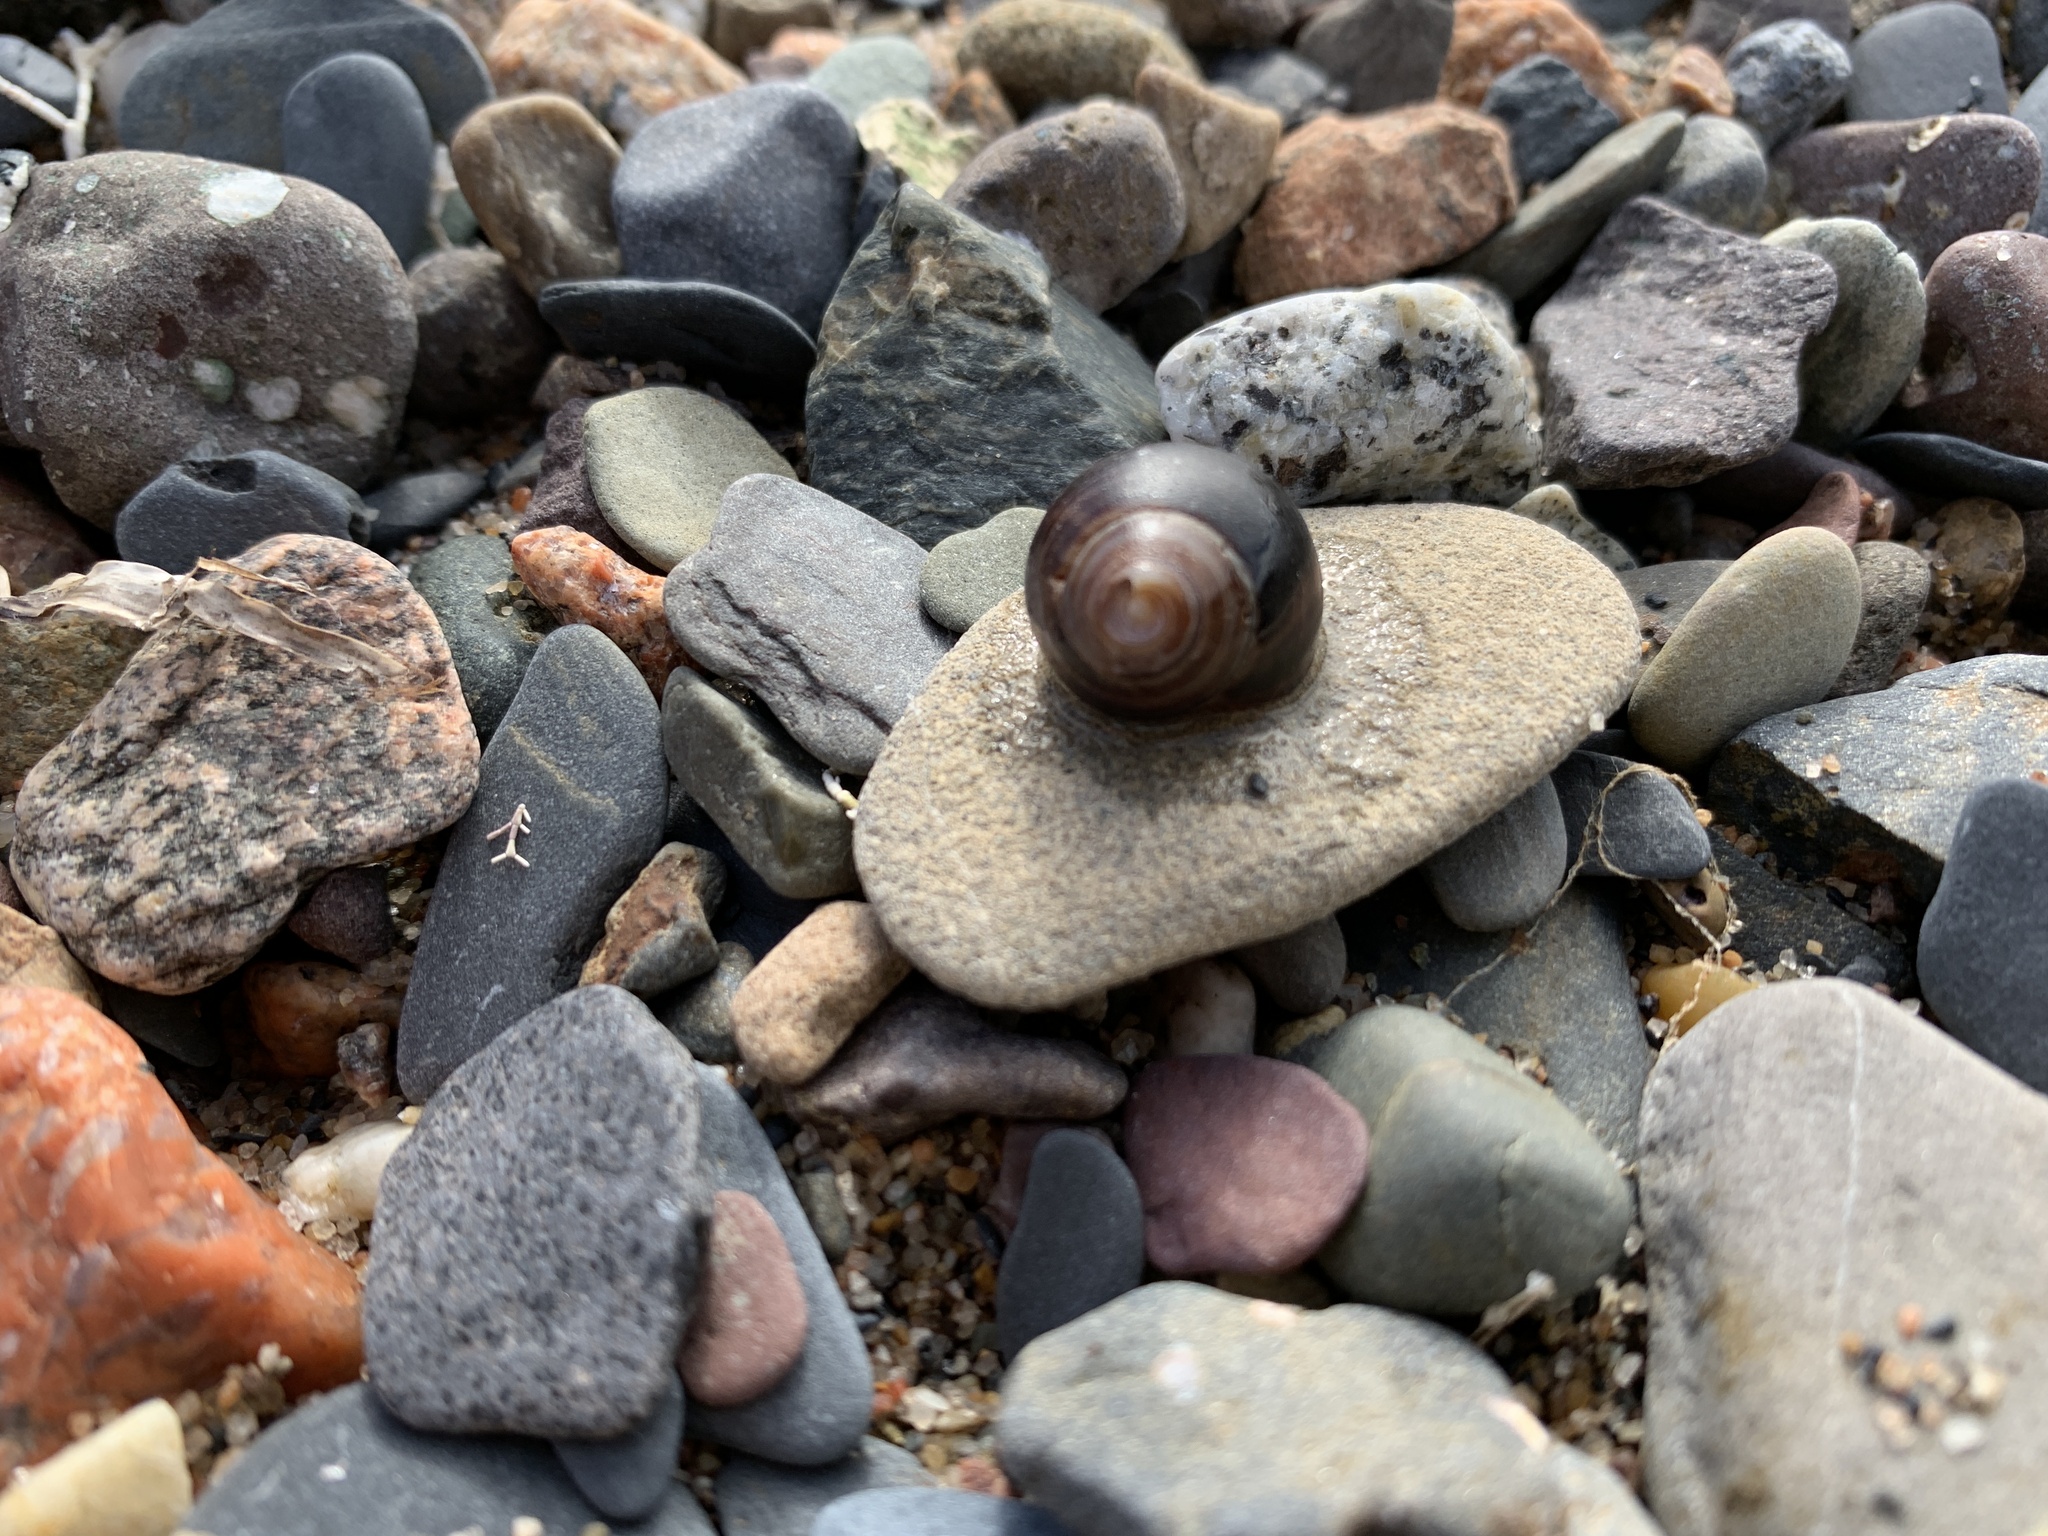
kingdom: Animalia
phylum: Mollusca
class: Gastropoda
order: Littorinimorpha
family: Littorinidae
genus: Littorina
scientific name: Littorina littorea
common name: Common periwinkle
